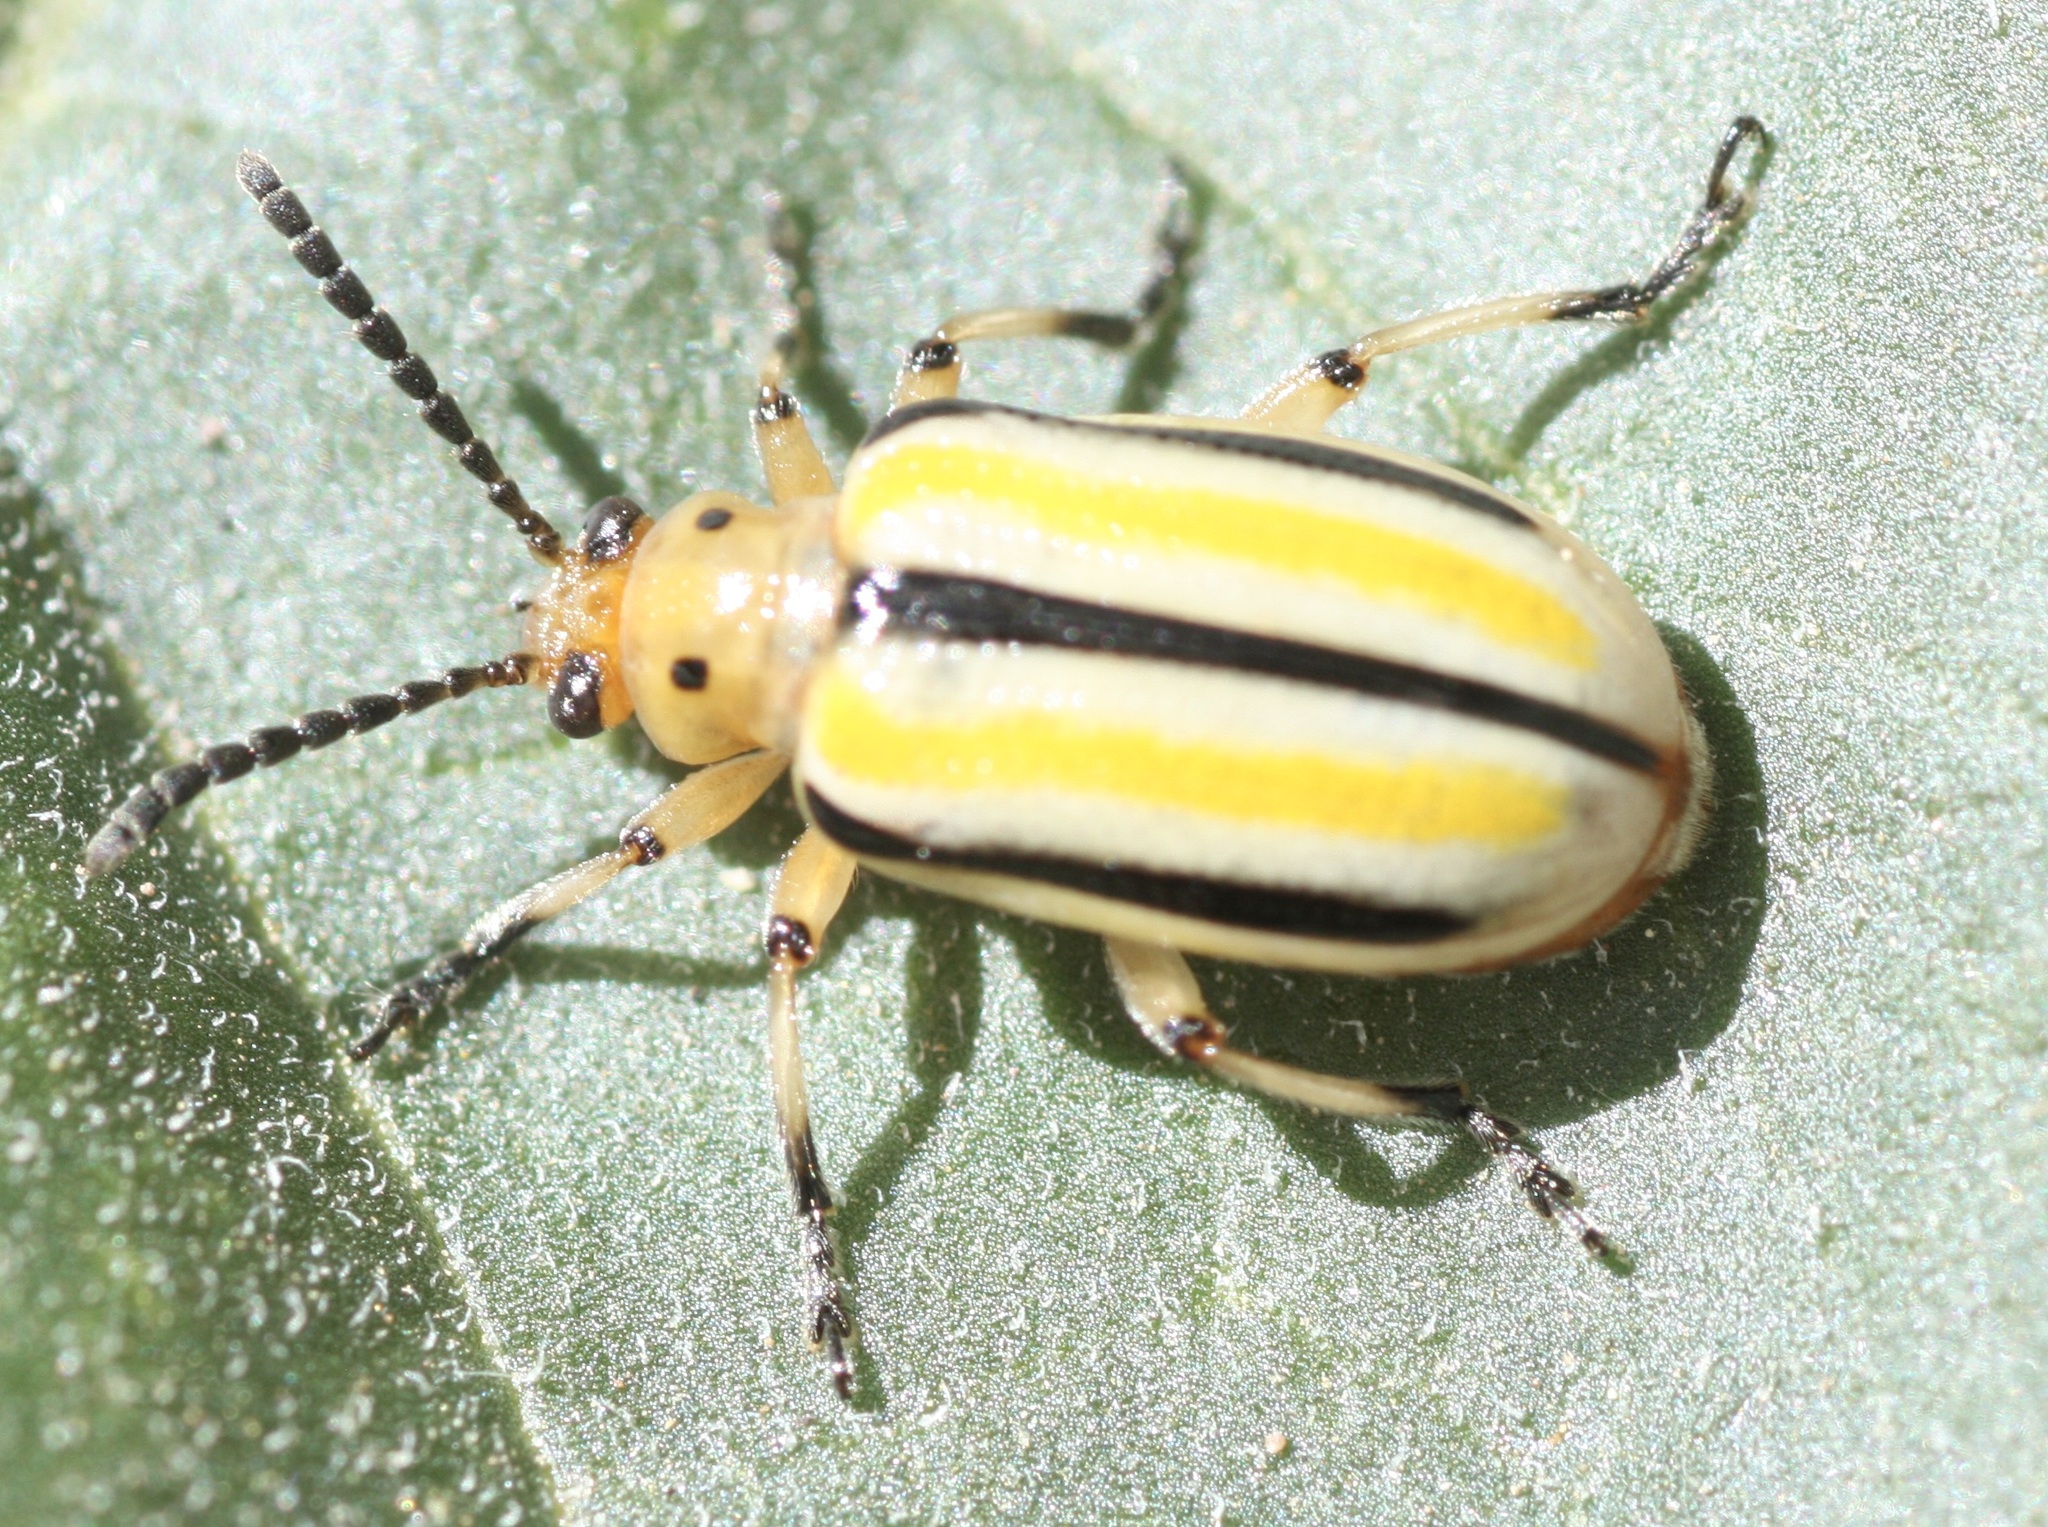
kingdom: Animalia
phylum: Arthropoda
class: Insecta
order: Coleoptera
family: Chrysomelidae
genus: Lema
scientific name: Lema trivittata
